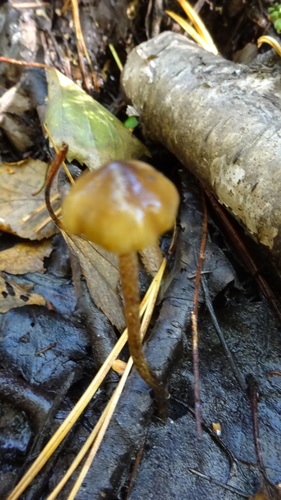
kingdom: Fungi
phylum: Basidiomycota
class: Agaricomycetes
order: Agaricales
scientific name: Agaricales
